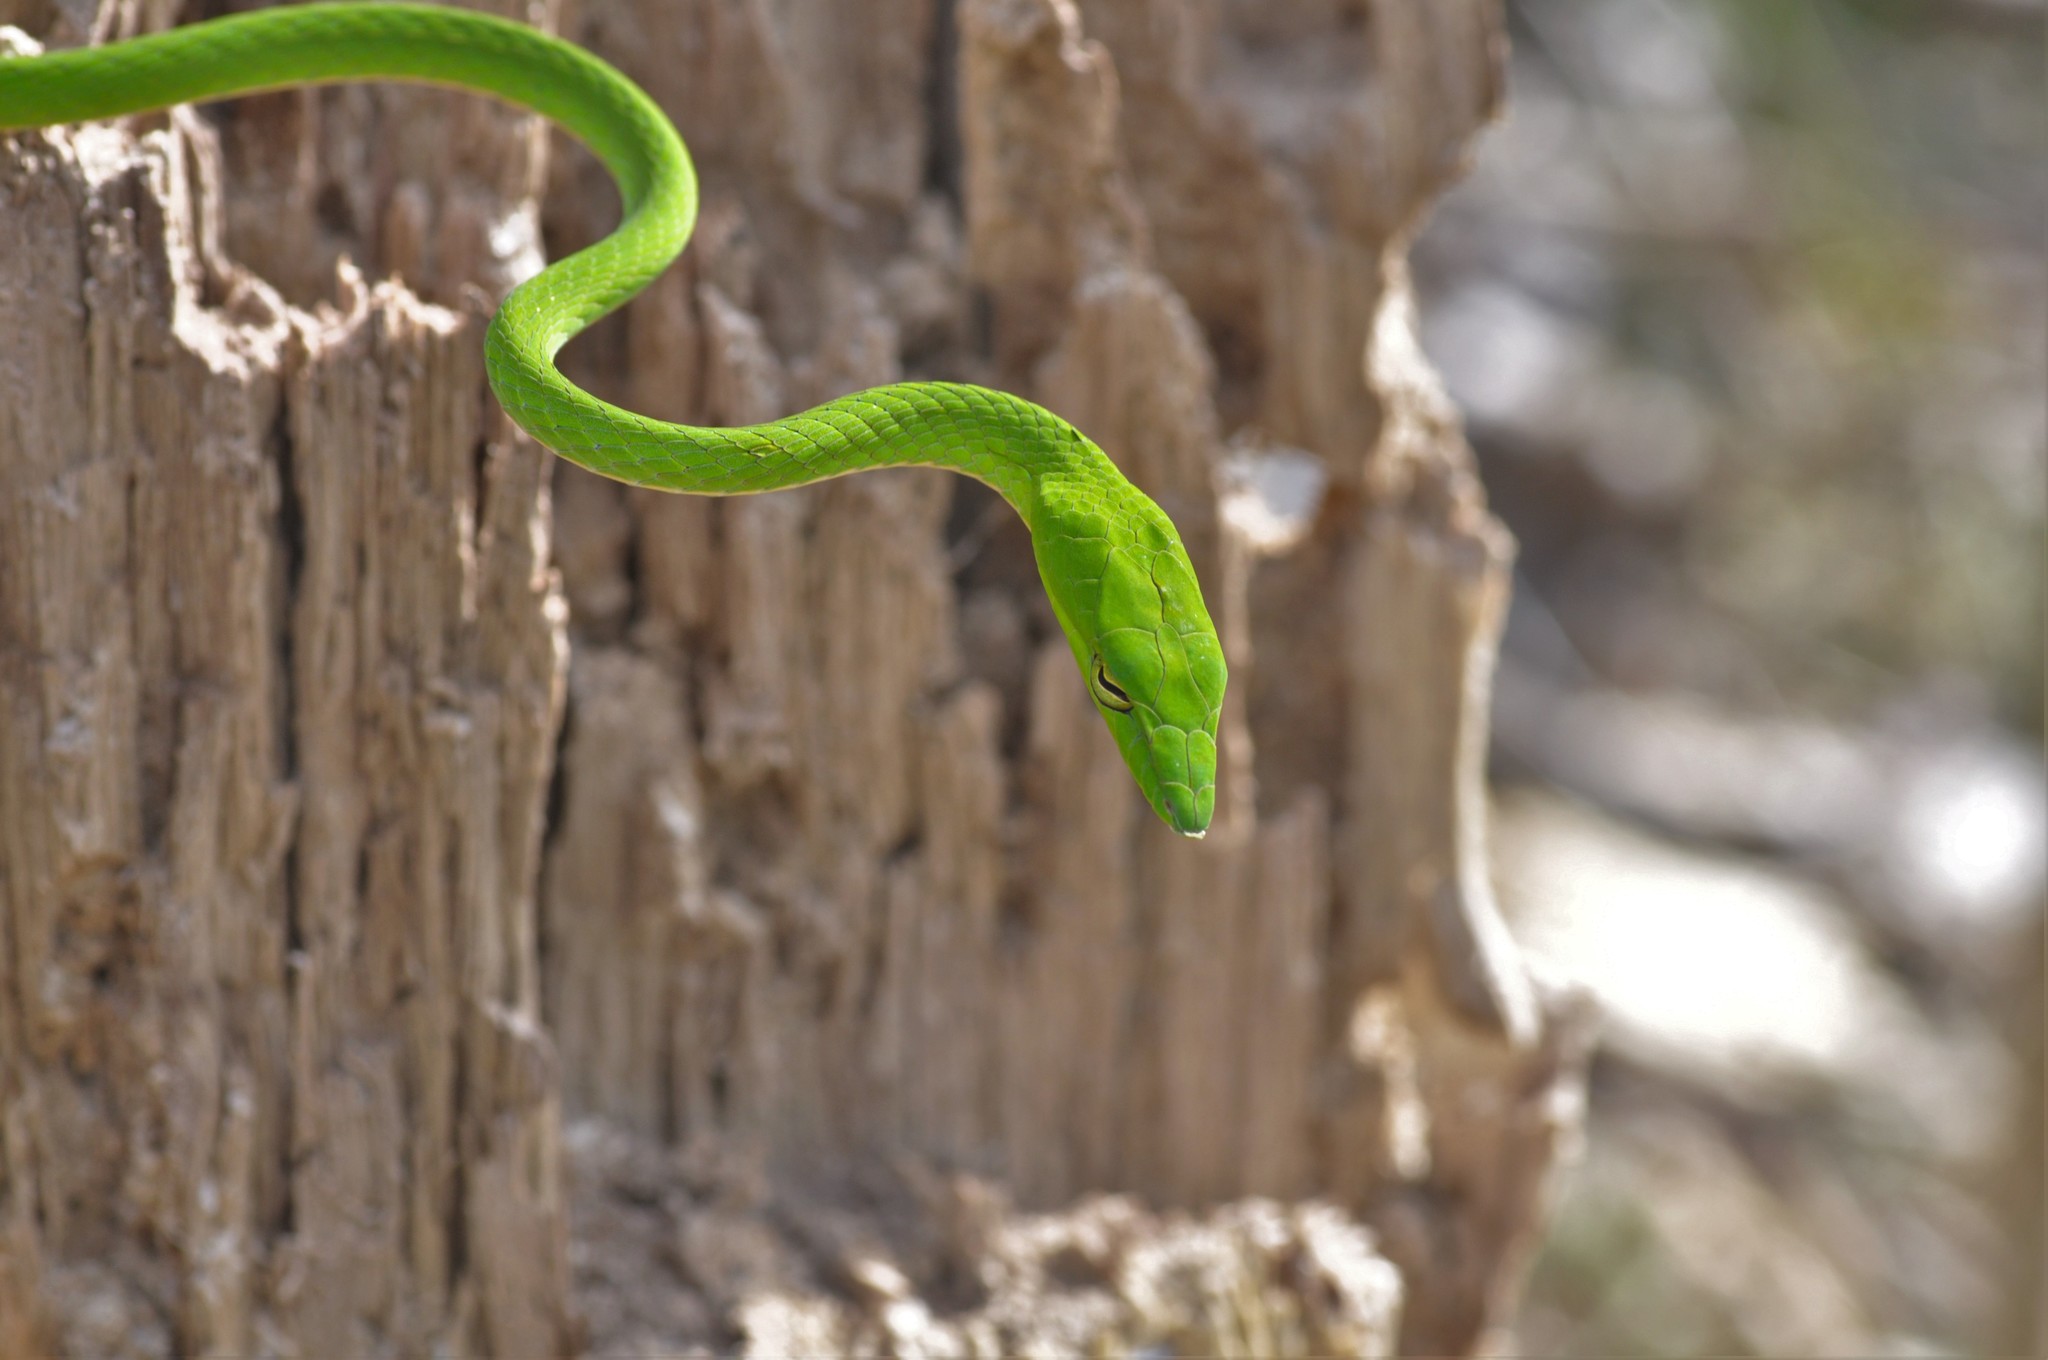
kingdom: Animalia
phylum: Chordata
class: Squamata
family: Colubridae
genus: Ahaetulla
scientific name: Ahaetulla prasina
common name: Oriental whip snake
